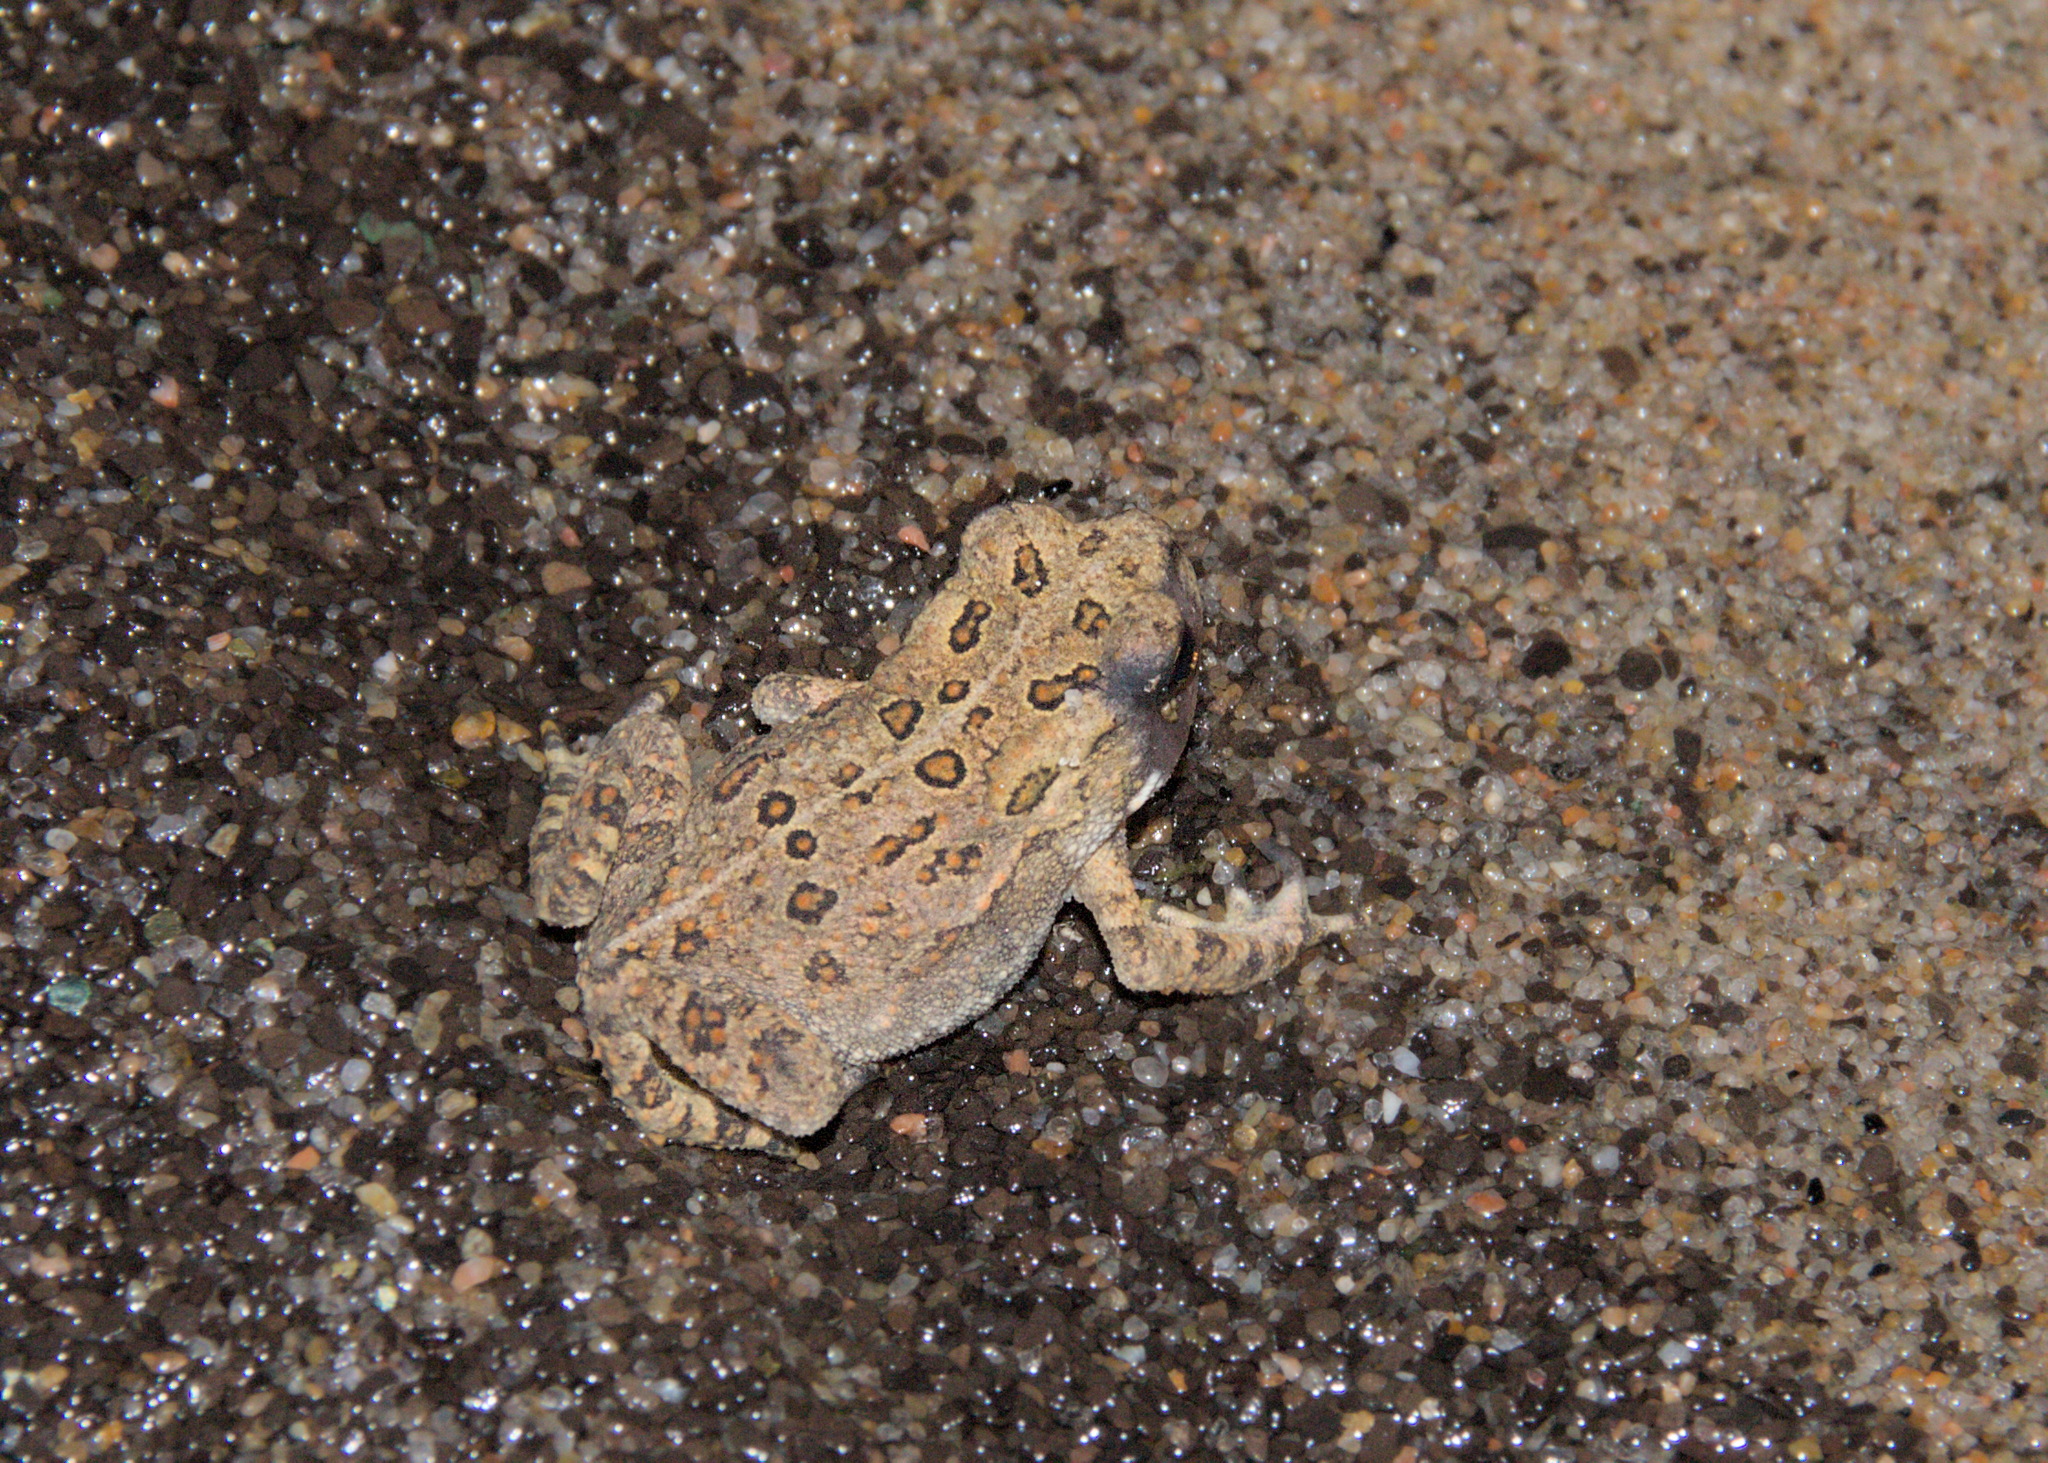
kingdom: Animalia
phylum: Chordata
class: Amphibia
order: Anura
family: Bufonidae
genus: Anaxyrus
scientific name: Anaxyrus americanus
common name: American toad
